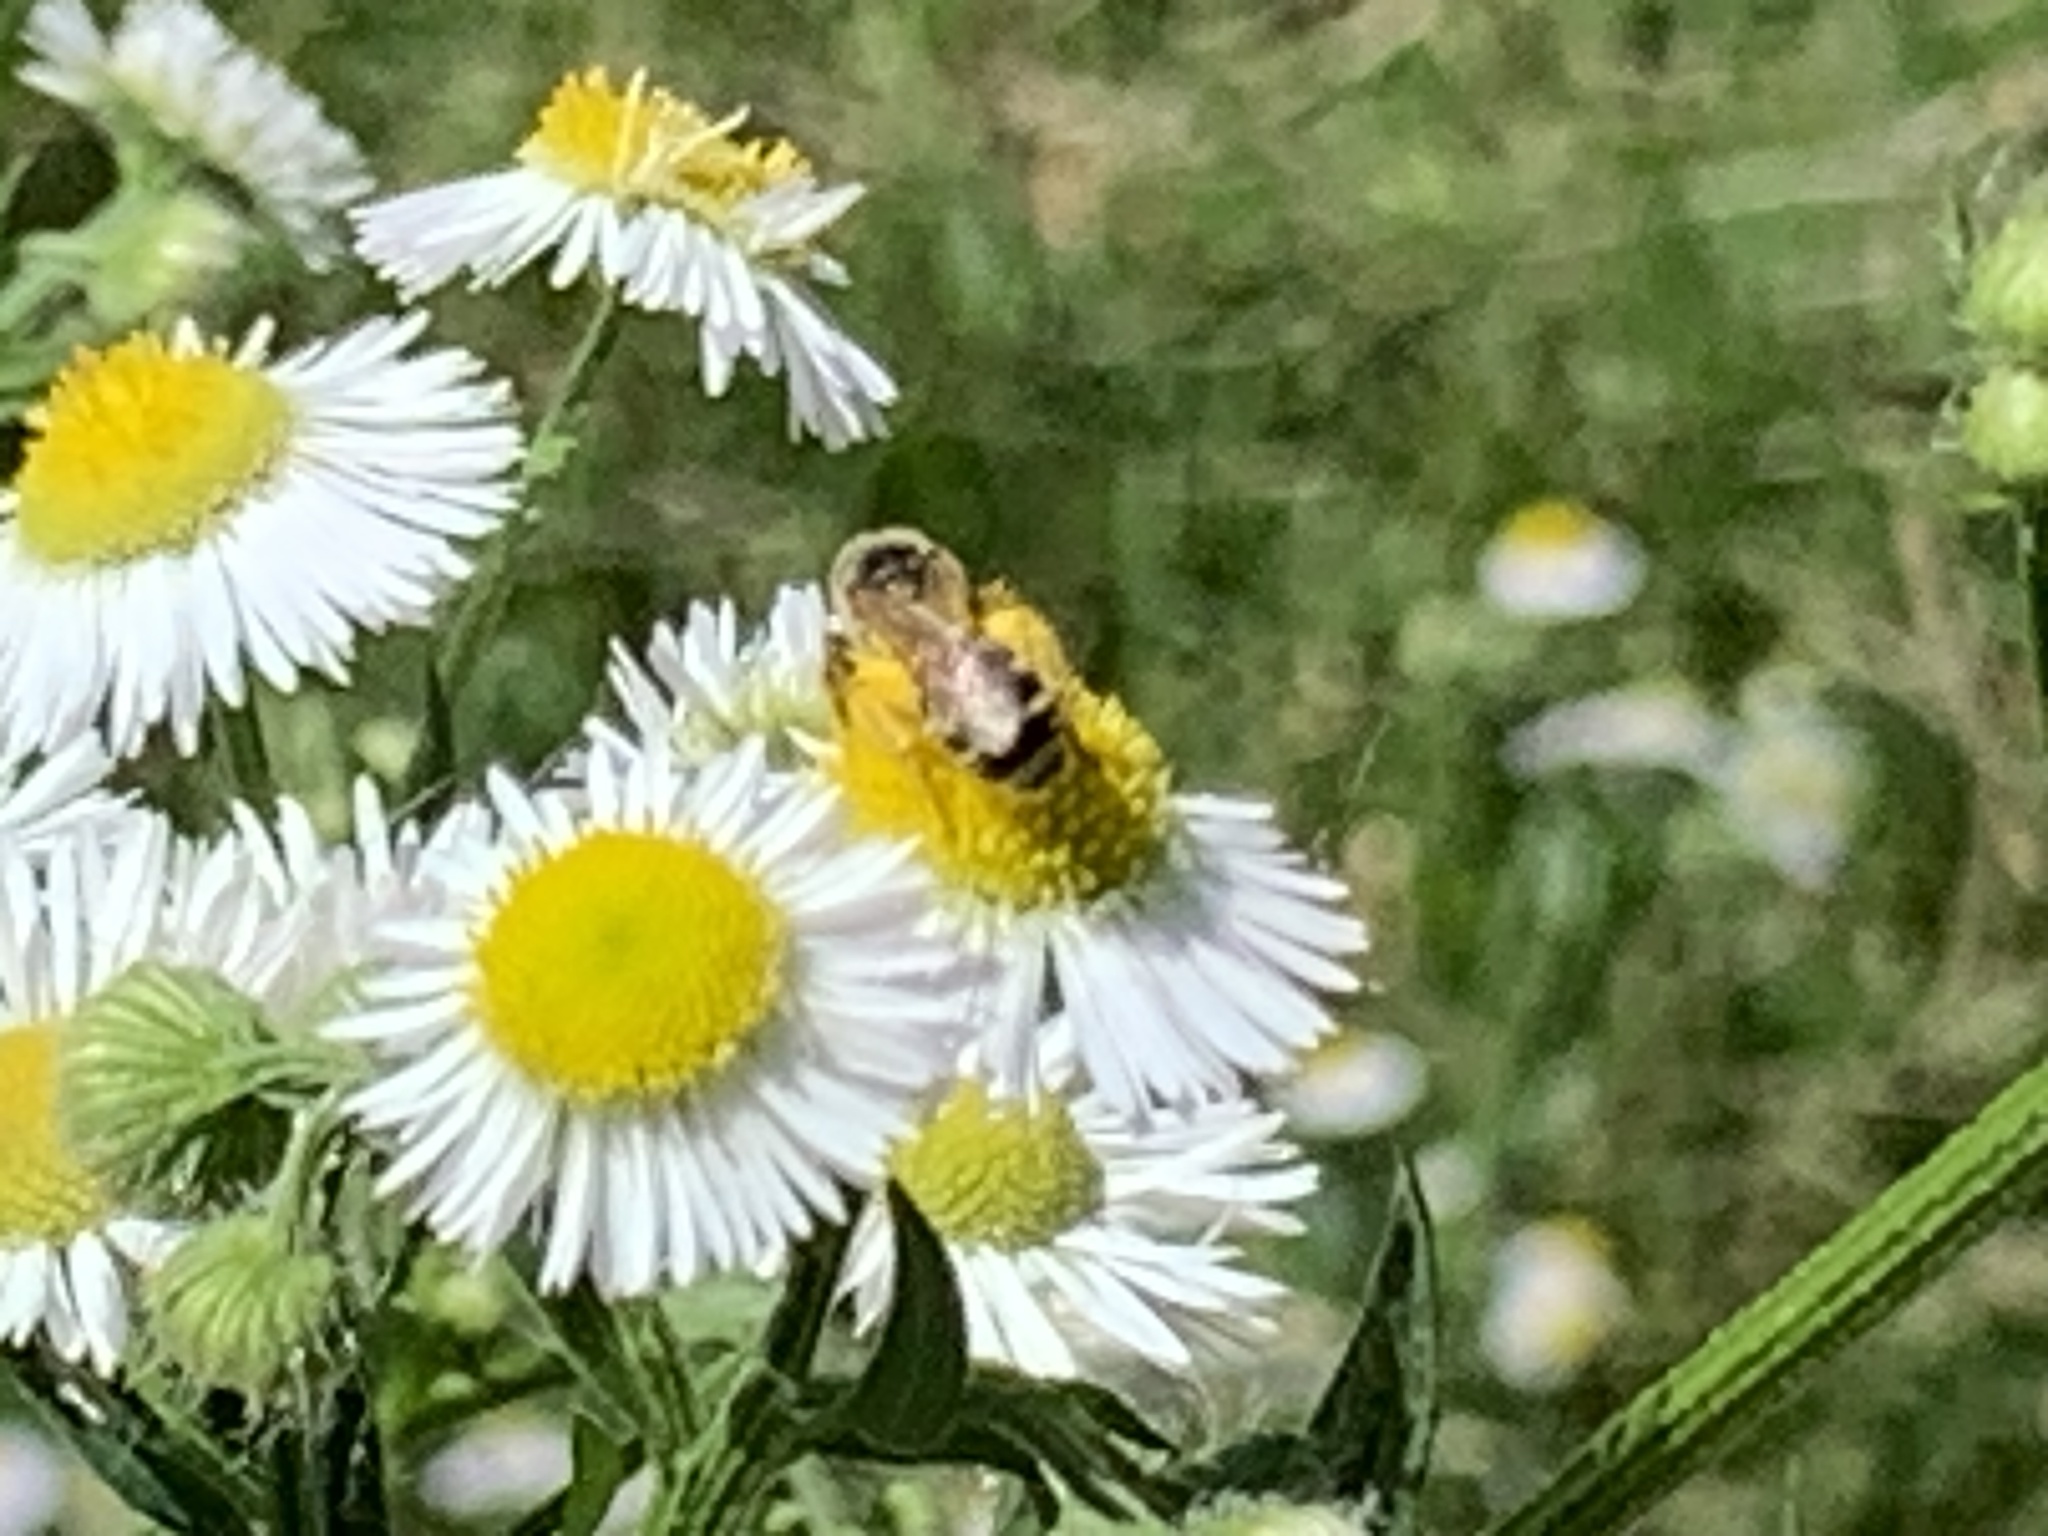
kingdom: Animalia
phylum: Arthropoda
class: Insecta
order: Hymenoptera
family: Halictidae
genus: Halictus
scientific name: Halictus ligatus
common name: Ligated furrow bee
